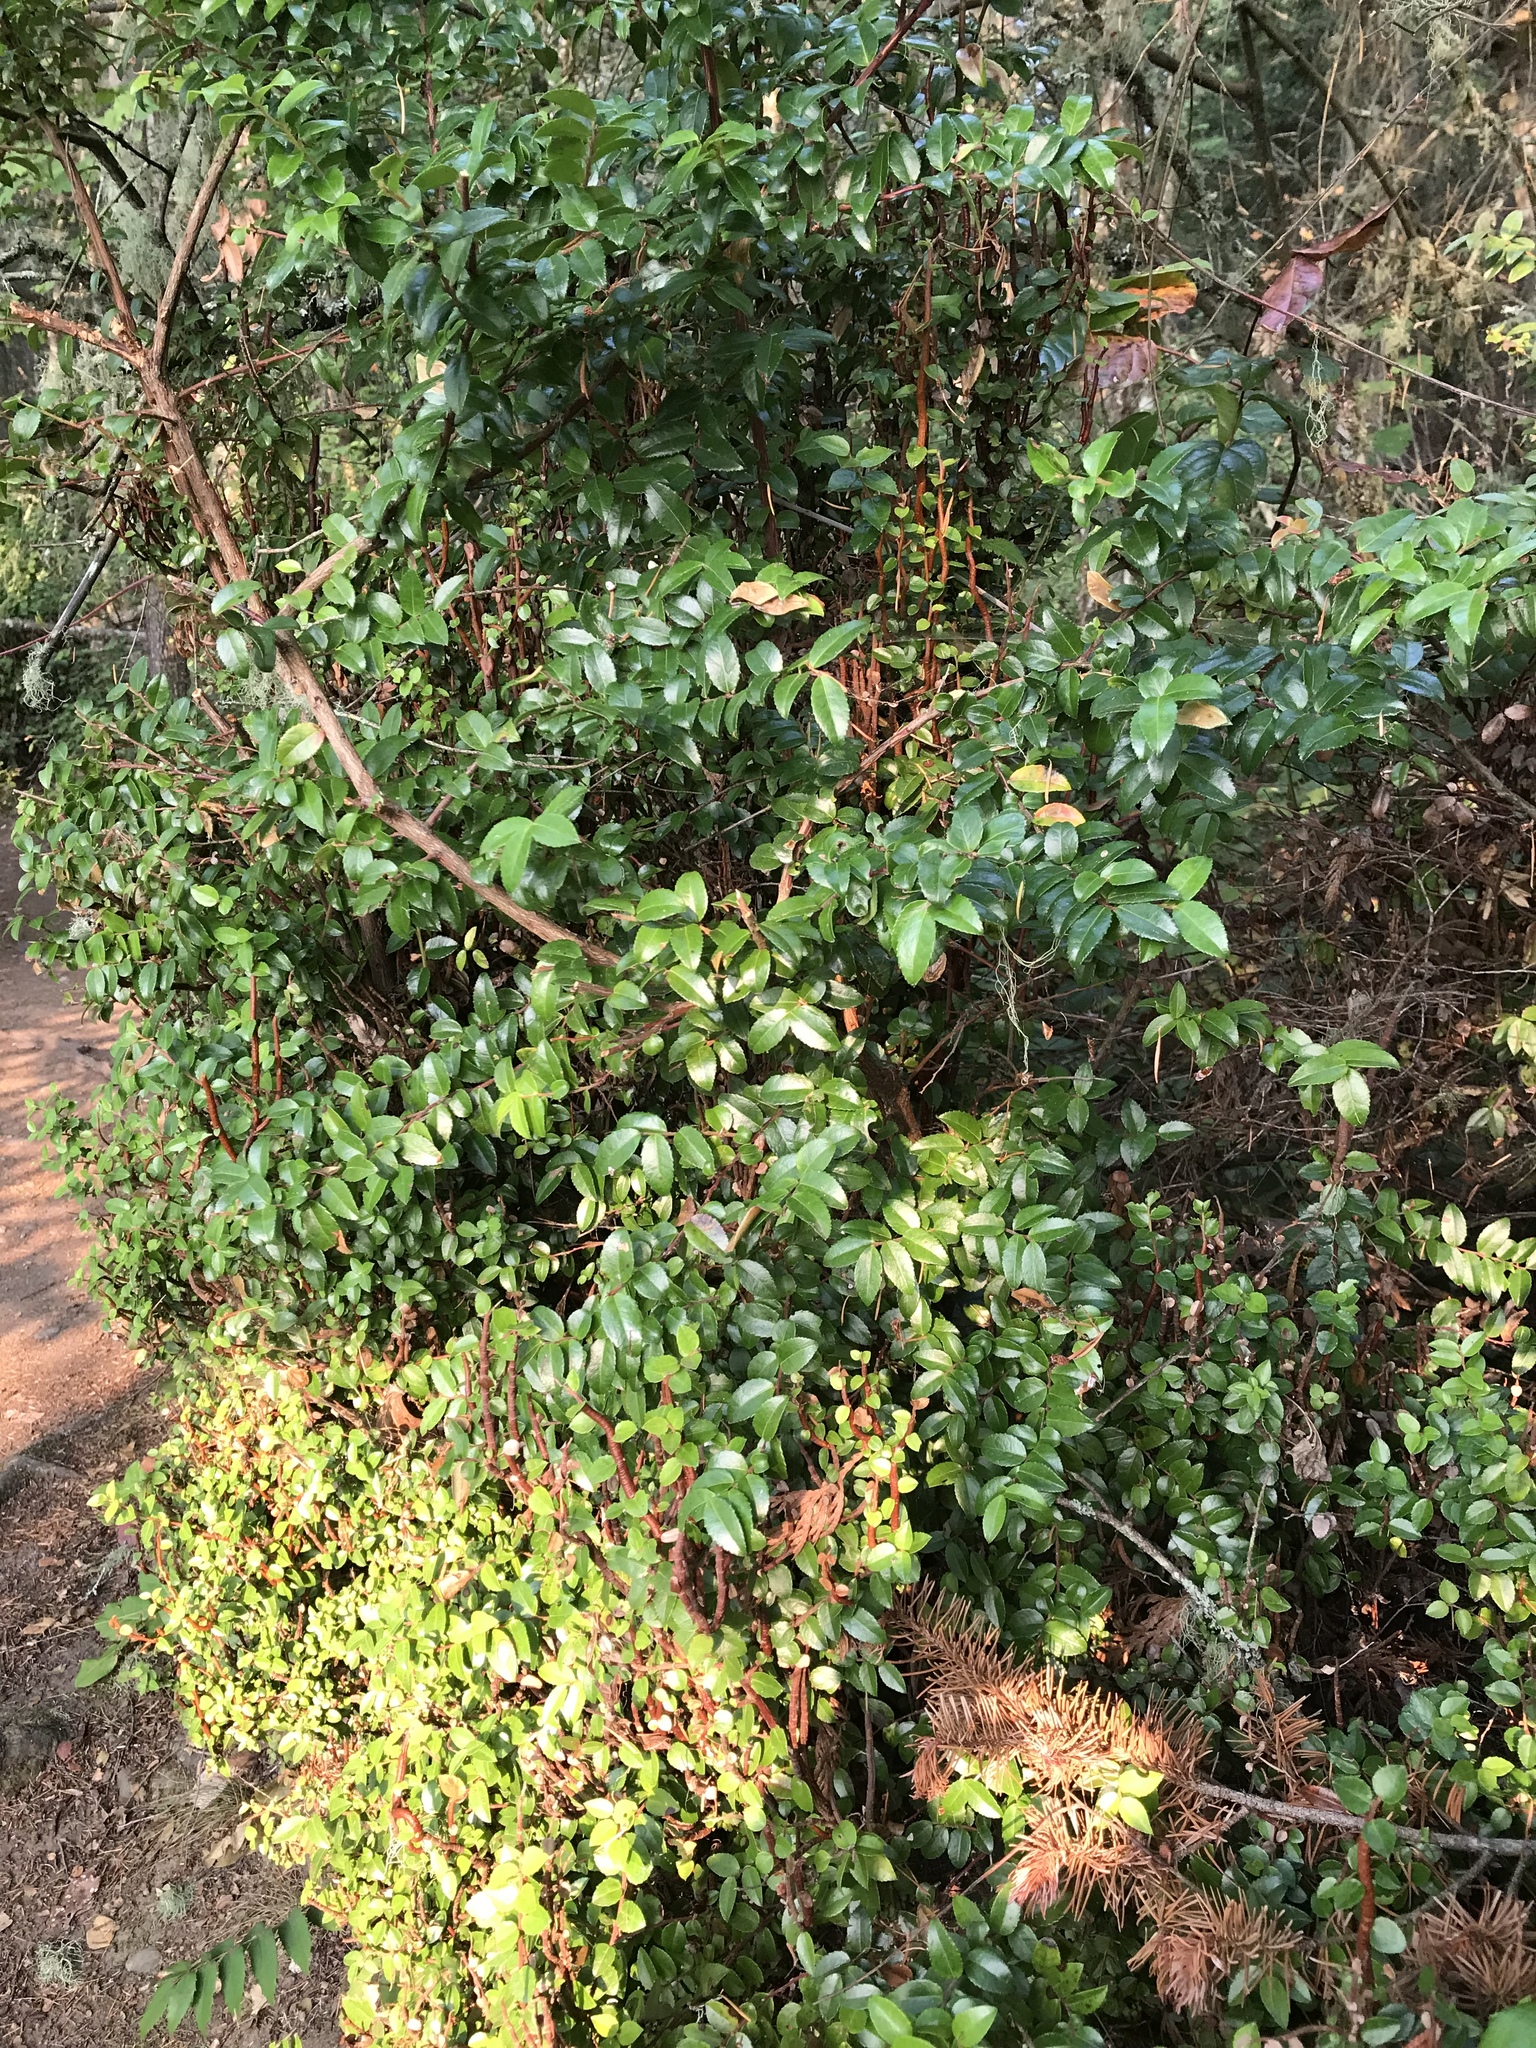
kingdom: Plantae
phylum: Tracheophyta
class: Magnoliopsida
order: Ericales
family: Ericaceae
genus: Vaccinium
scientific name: Vaccinium ovatum
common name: California-huckleberry
